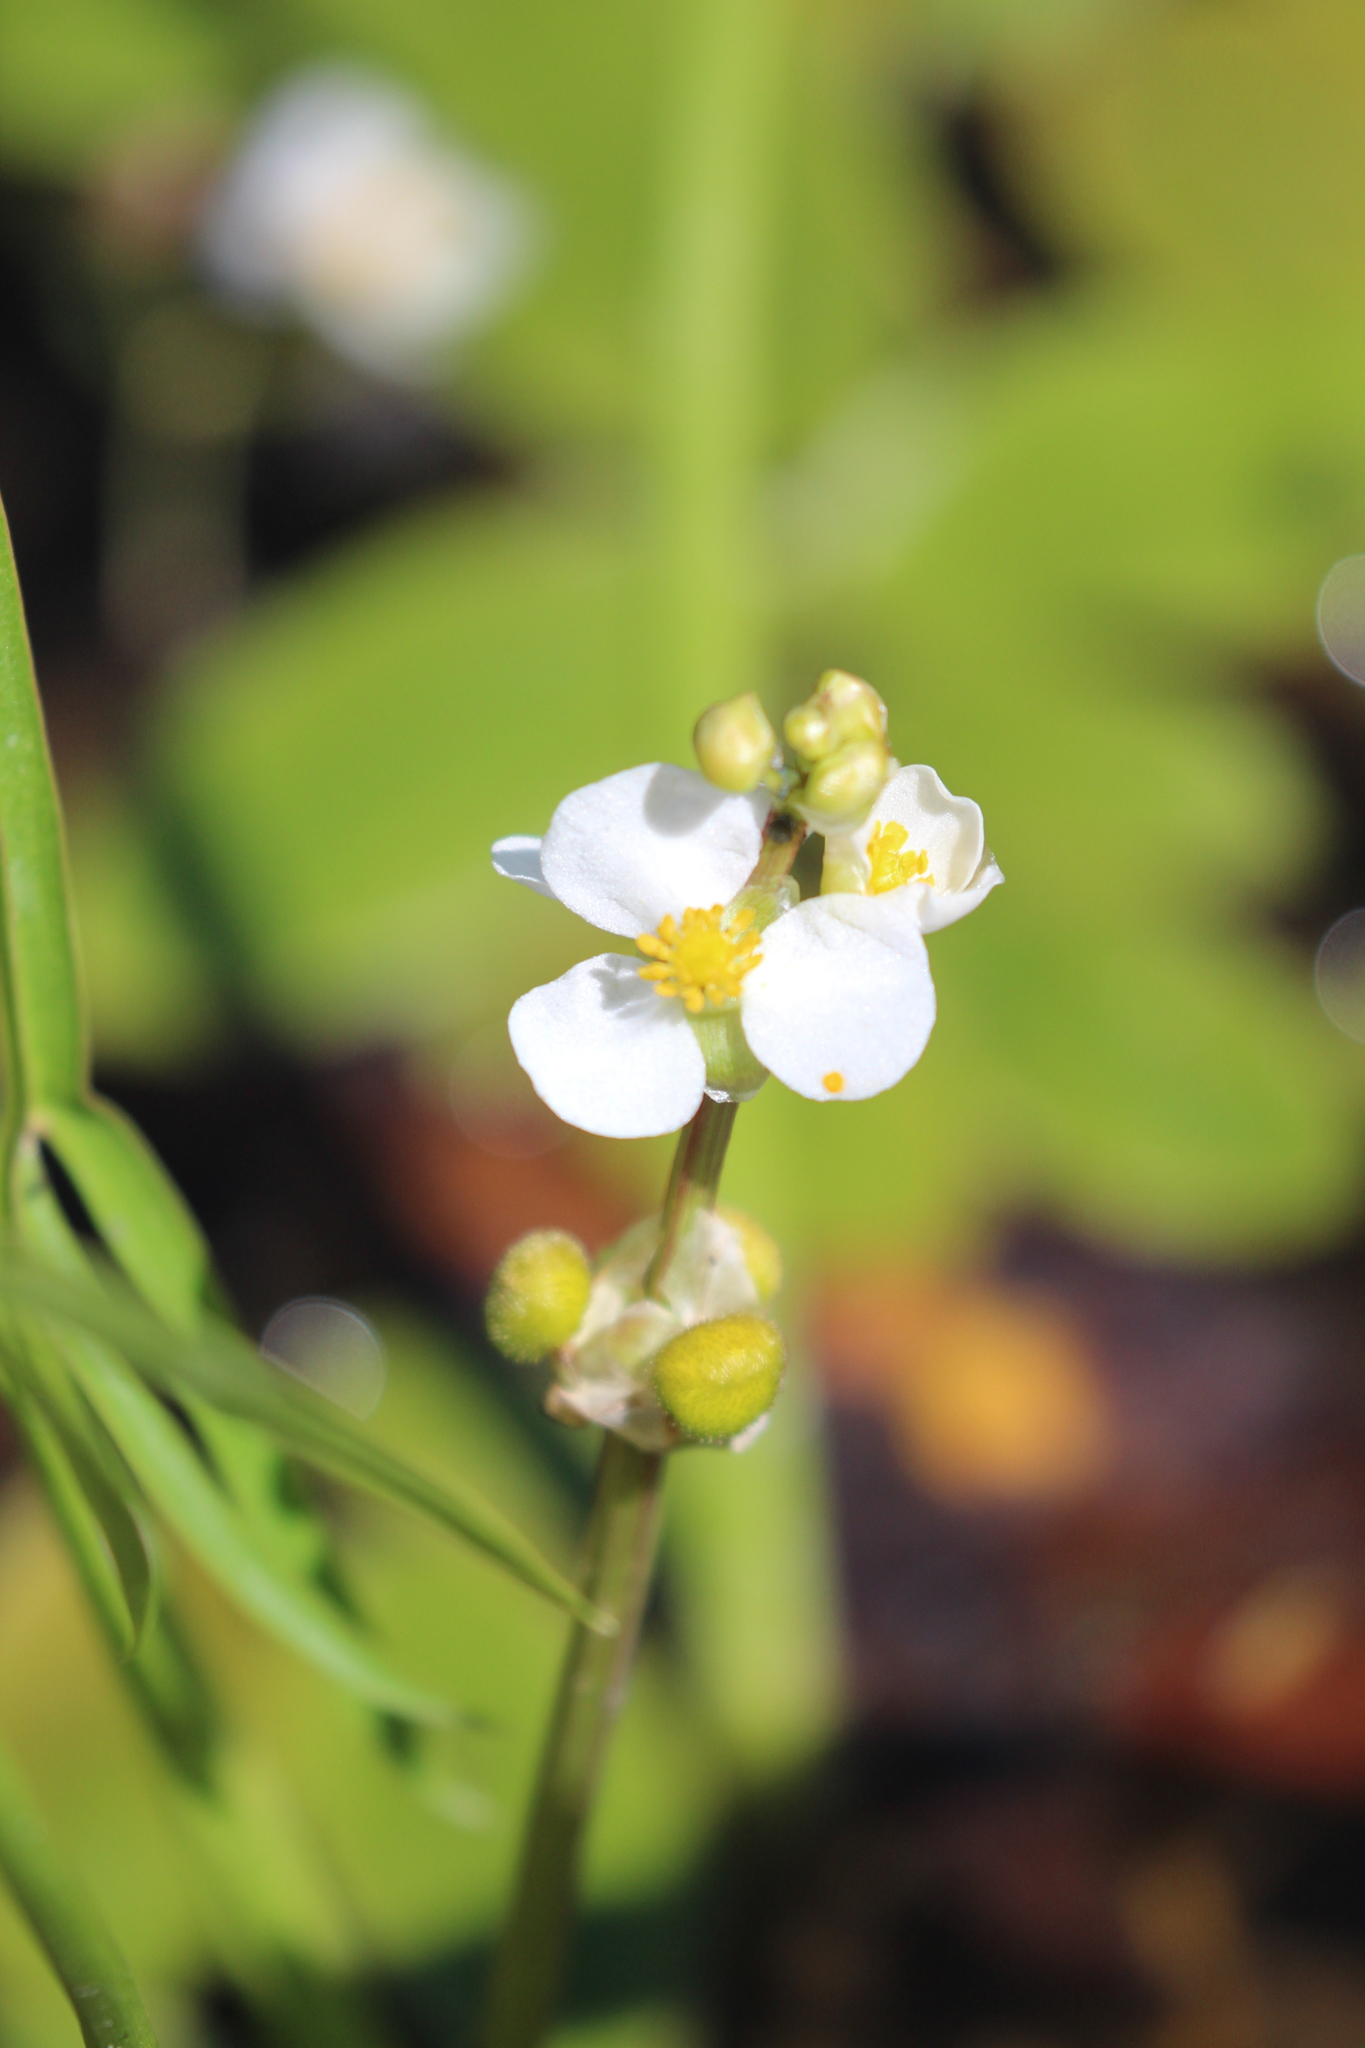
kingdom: Plantae
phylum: Tracheophyta
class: Liliopsida
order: Alismatales
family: Alismataceae
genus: Sagittaria
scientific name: Sagittaria latifolia
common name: Duck-potato
